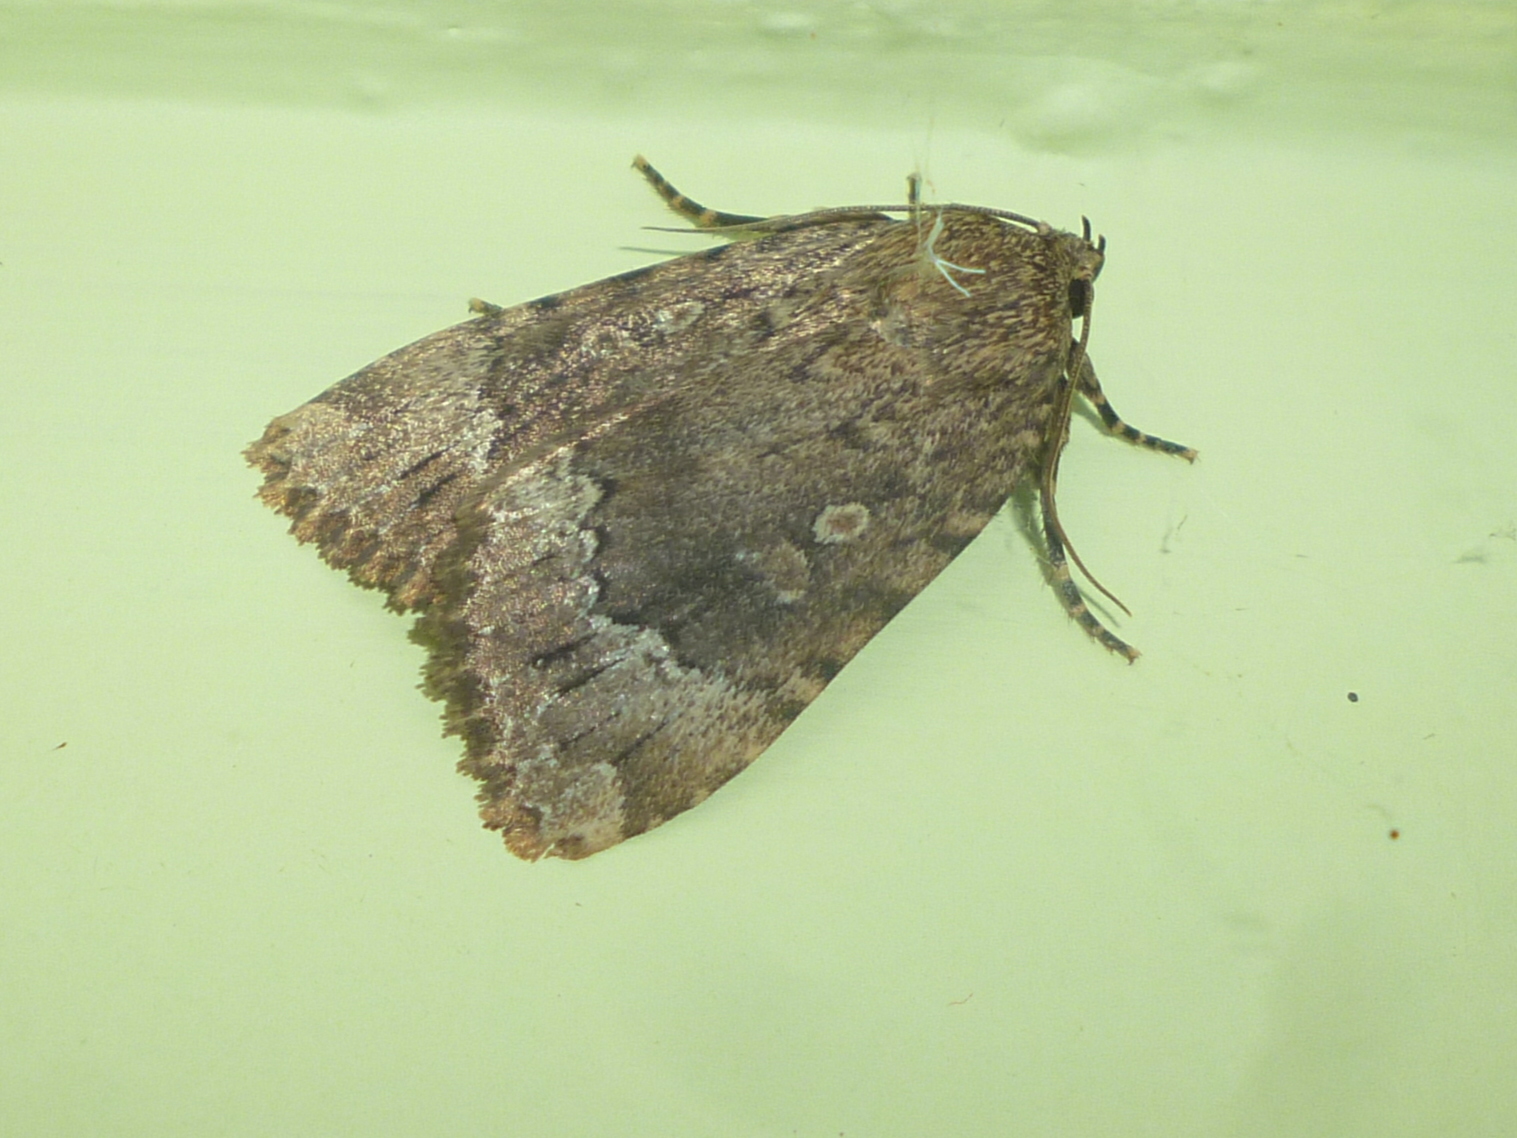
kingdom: Animalia
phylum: Arthropoda
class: Insecta
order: Lepidoptera
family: Noctuidae
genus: Amphipyra
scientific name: Amphipyra pyramidoides
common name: American copper underwing
